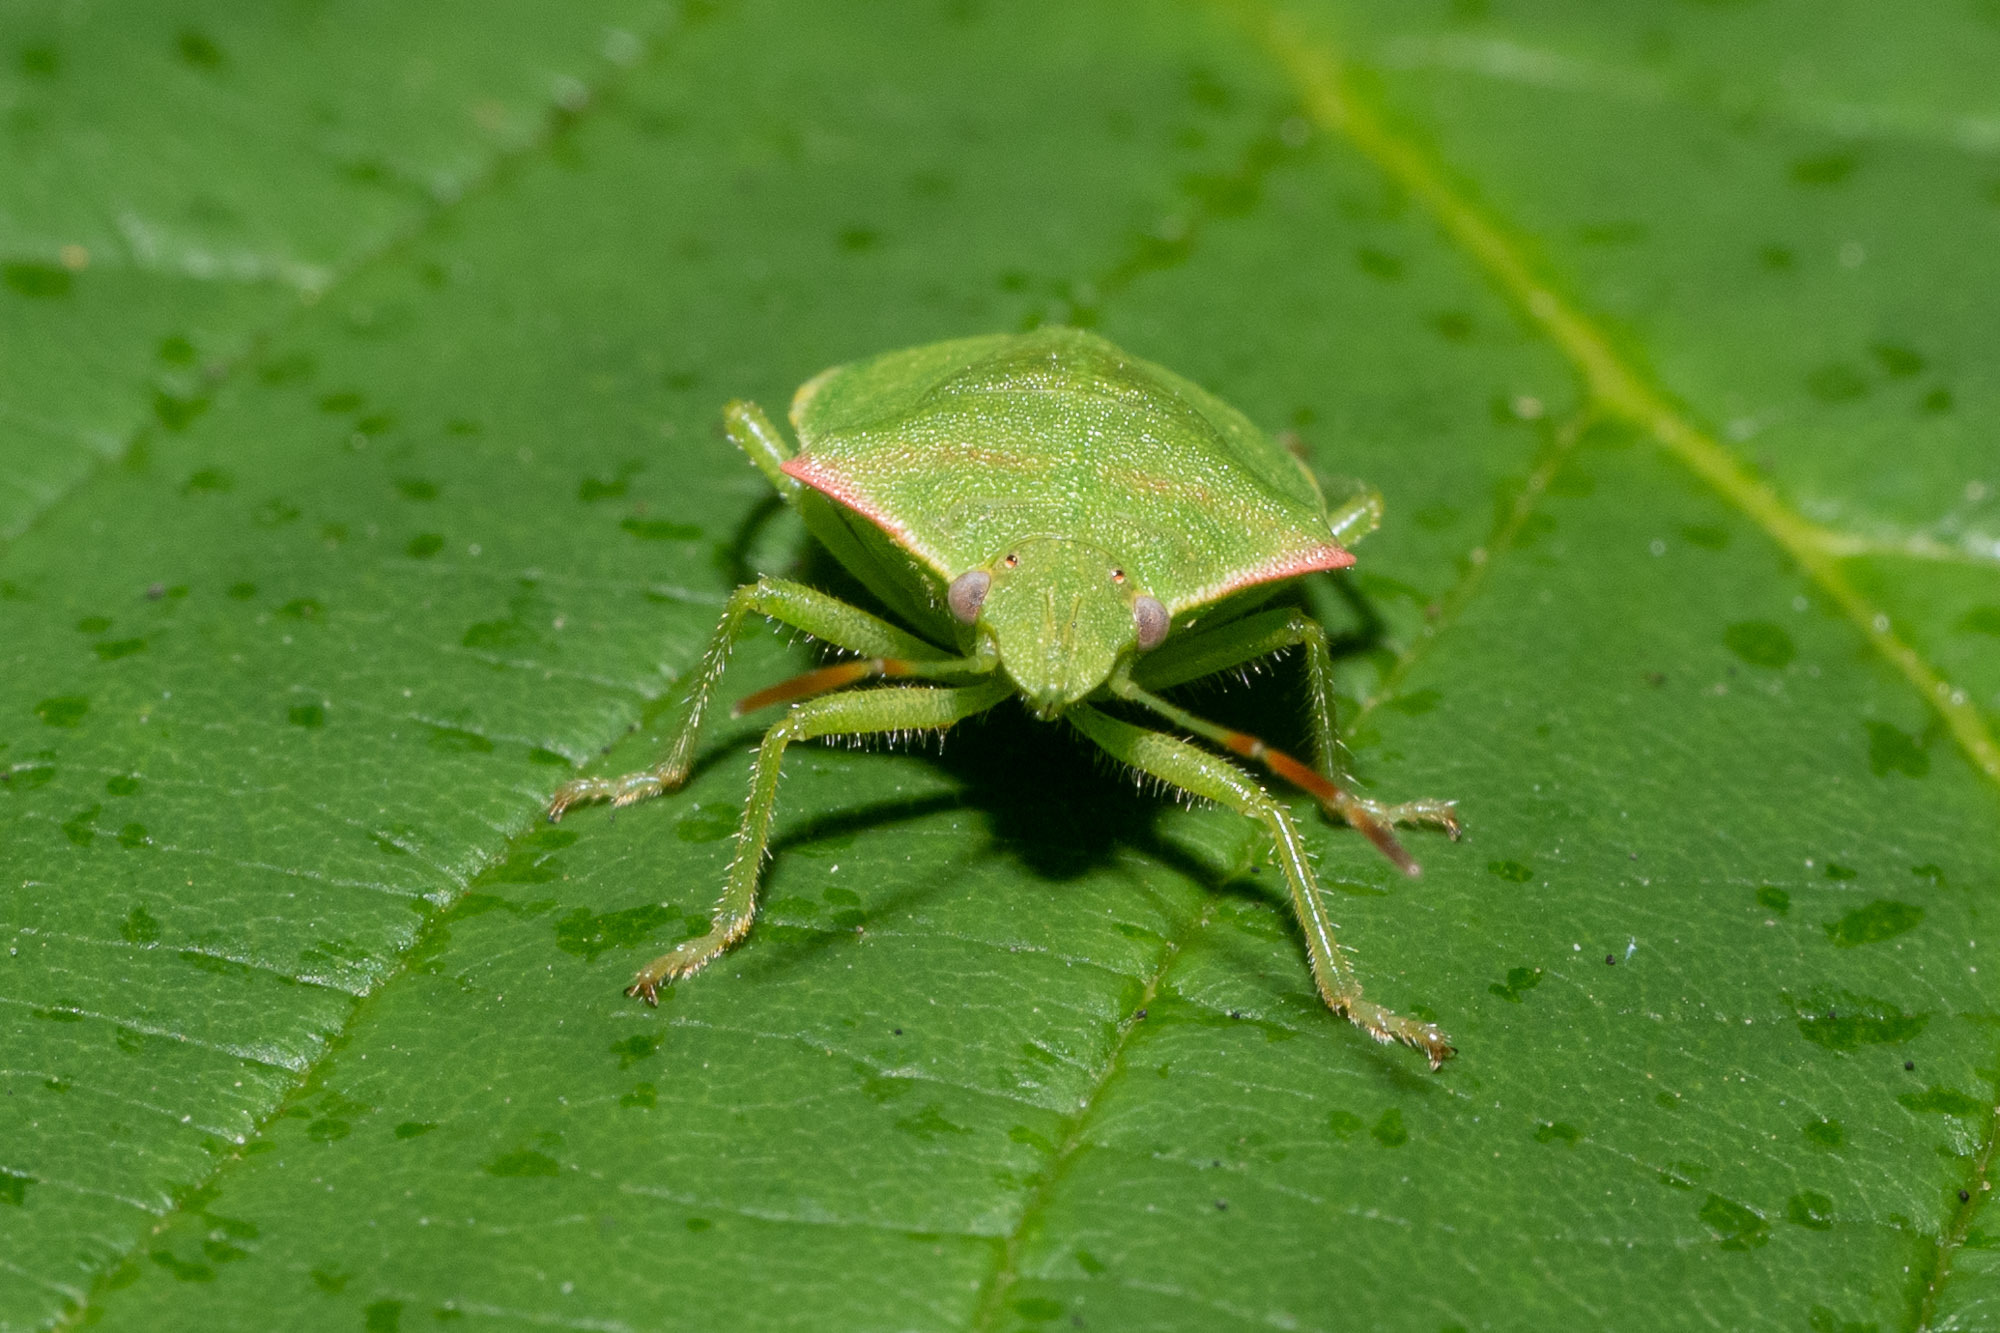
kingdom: Animalia
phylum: Arthropoda
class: Insecta
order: Hemiptera
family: Pentatomidae
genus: Thyanta
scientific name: Thyanta custator
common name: Stink bug
